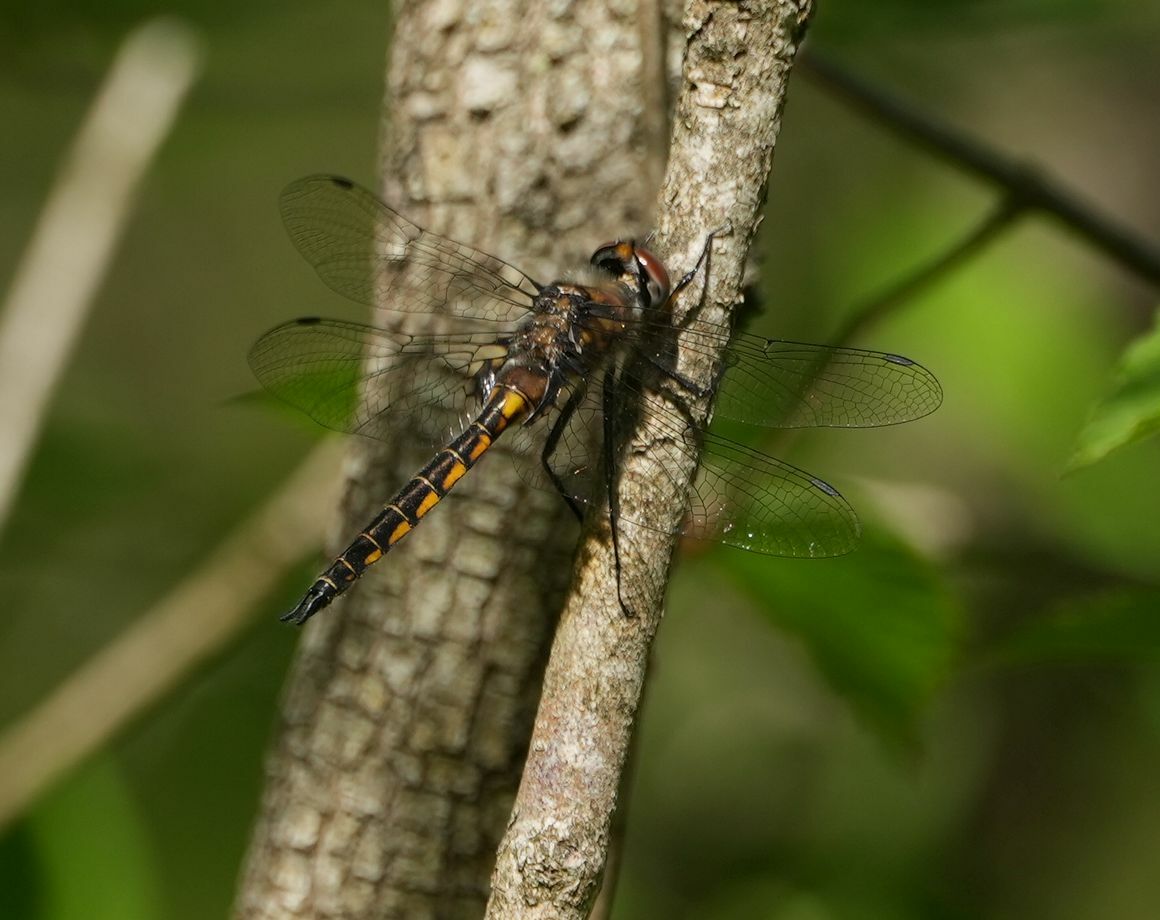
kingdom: Animalia
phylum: Arthropoda
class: Insecta
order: Odonata
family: Corduliidae
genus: Epitheca
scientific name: Epitheca spinigera
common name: Spiny baskettail
